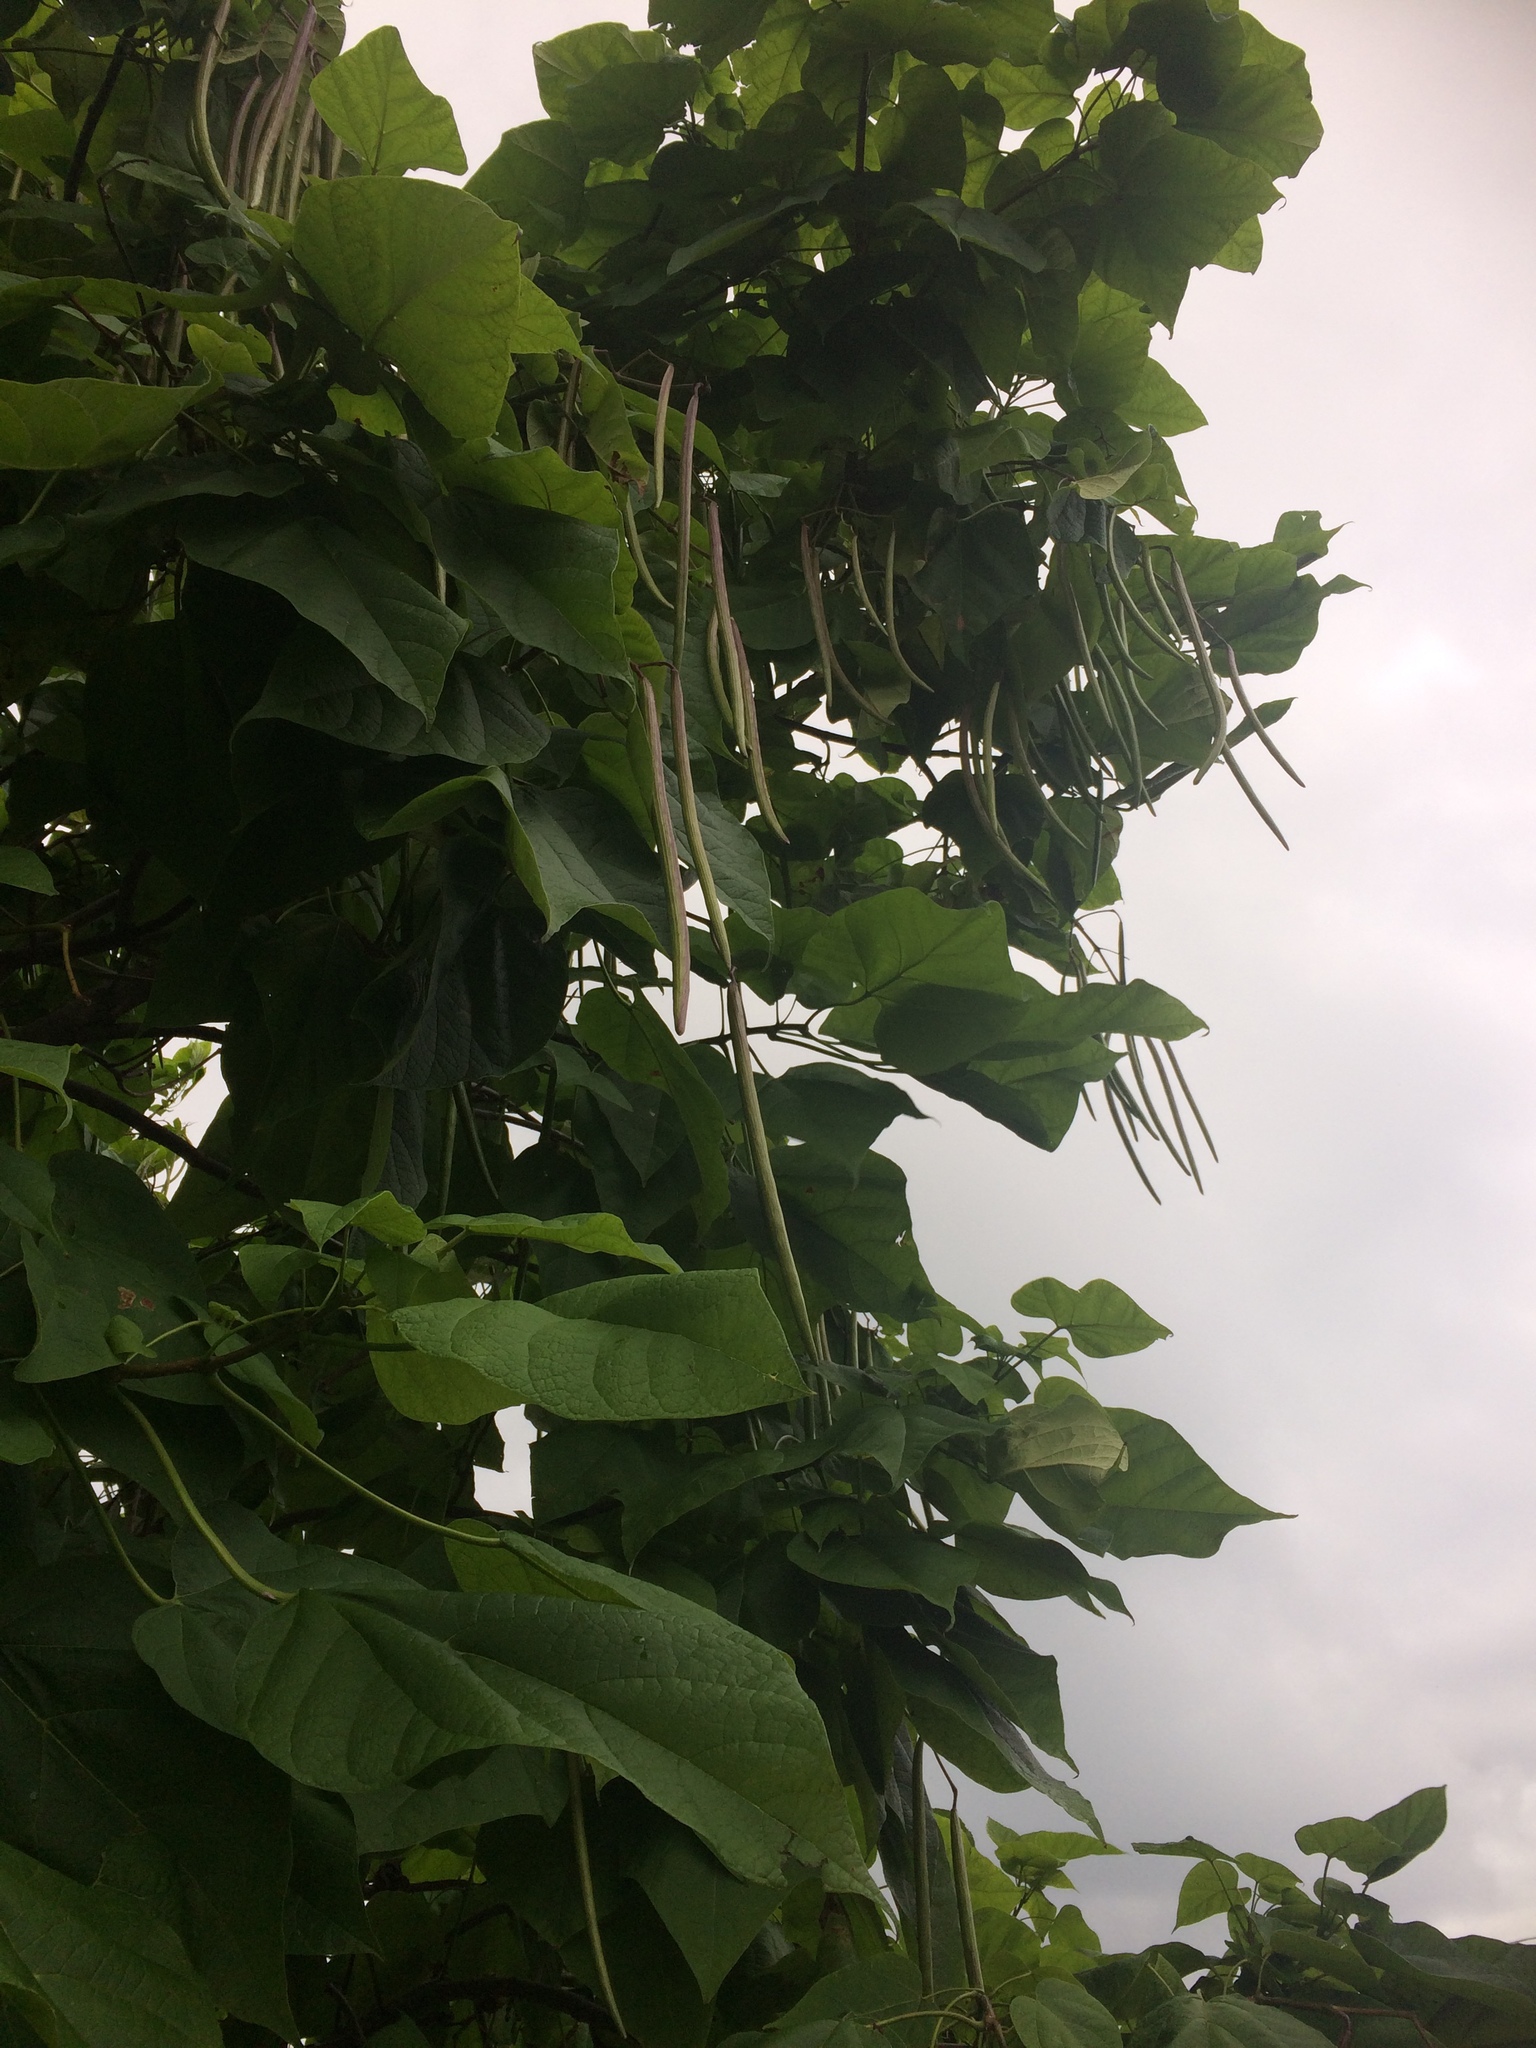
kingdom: Plantae
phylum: Tracheophyta
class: Magnoliopsida
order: Lamiales
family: Bignoniaceae
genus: Catalpa
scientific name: Catalpa speciosa
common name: Northern catalpa
